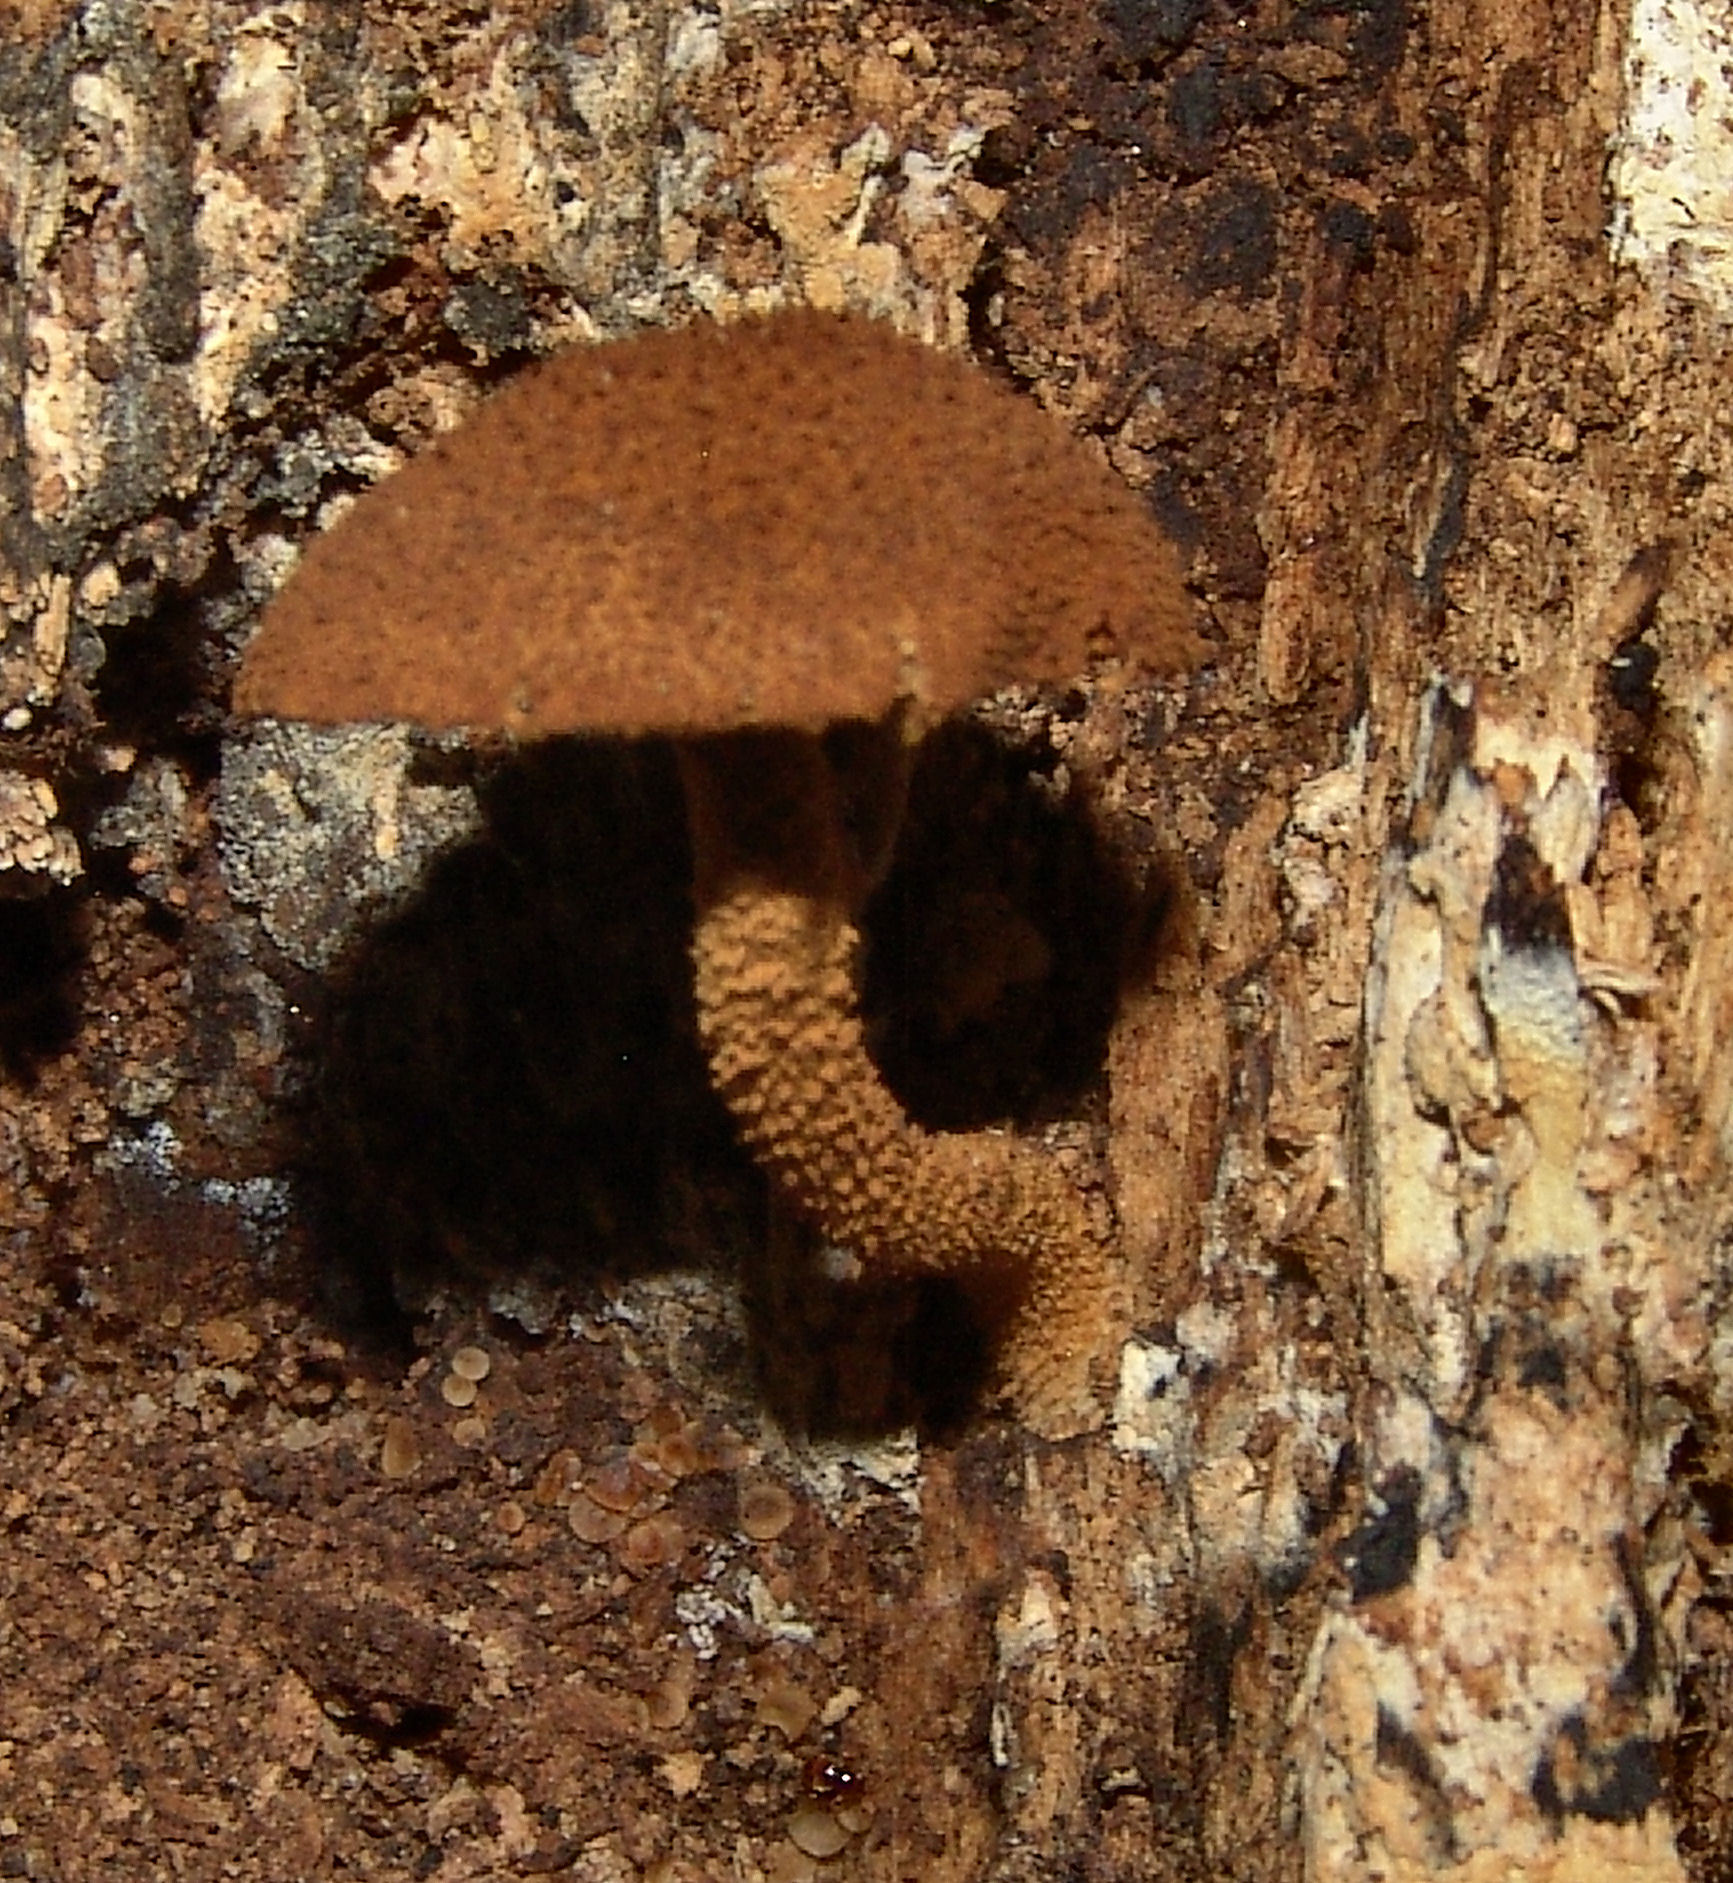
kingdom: Fungi
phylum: Basidiomycota
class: Agaricomycetes
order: Agaricales
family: Tubariaceae
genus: Flammulaster
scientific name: Flammulaster erinaceellus
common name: Powder-scale pholiota
